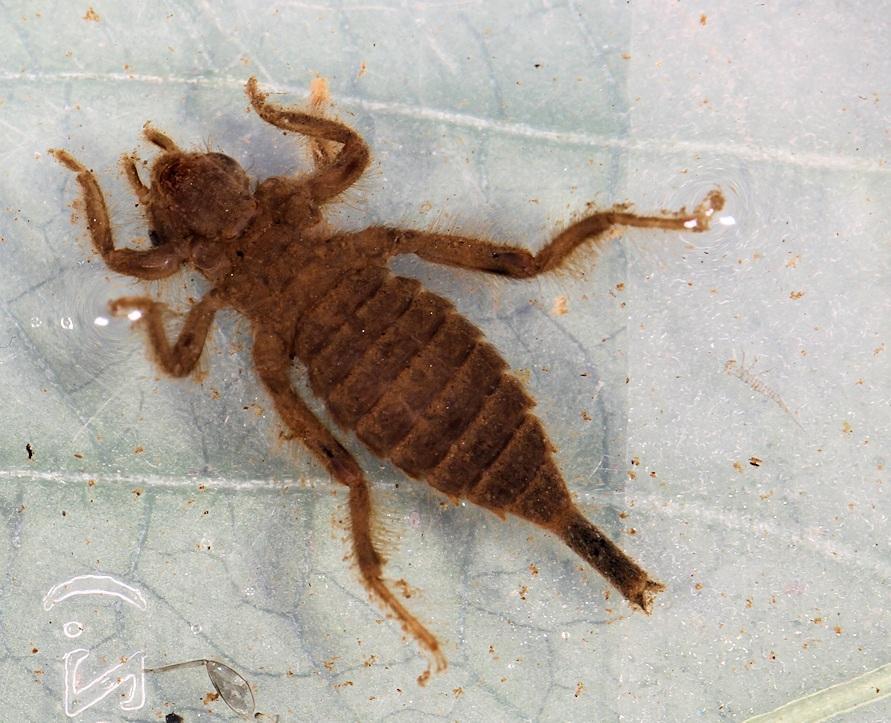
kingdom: Animalia
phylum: Arthropoda
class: Insecta
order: Odonata
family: Gomphidae
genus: Lestinogomphus
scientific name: Lestinogomphus angustus
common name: Spined fairytail
